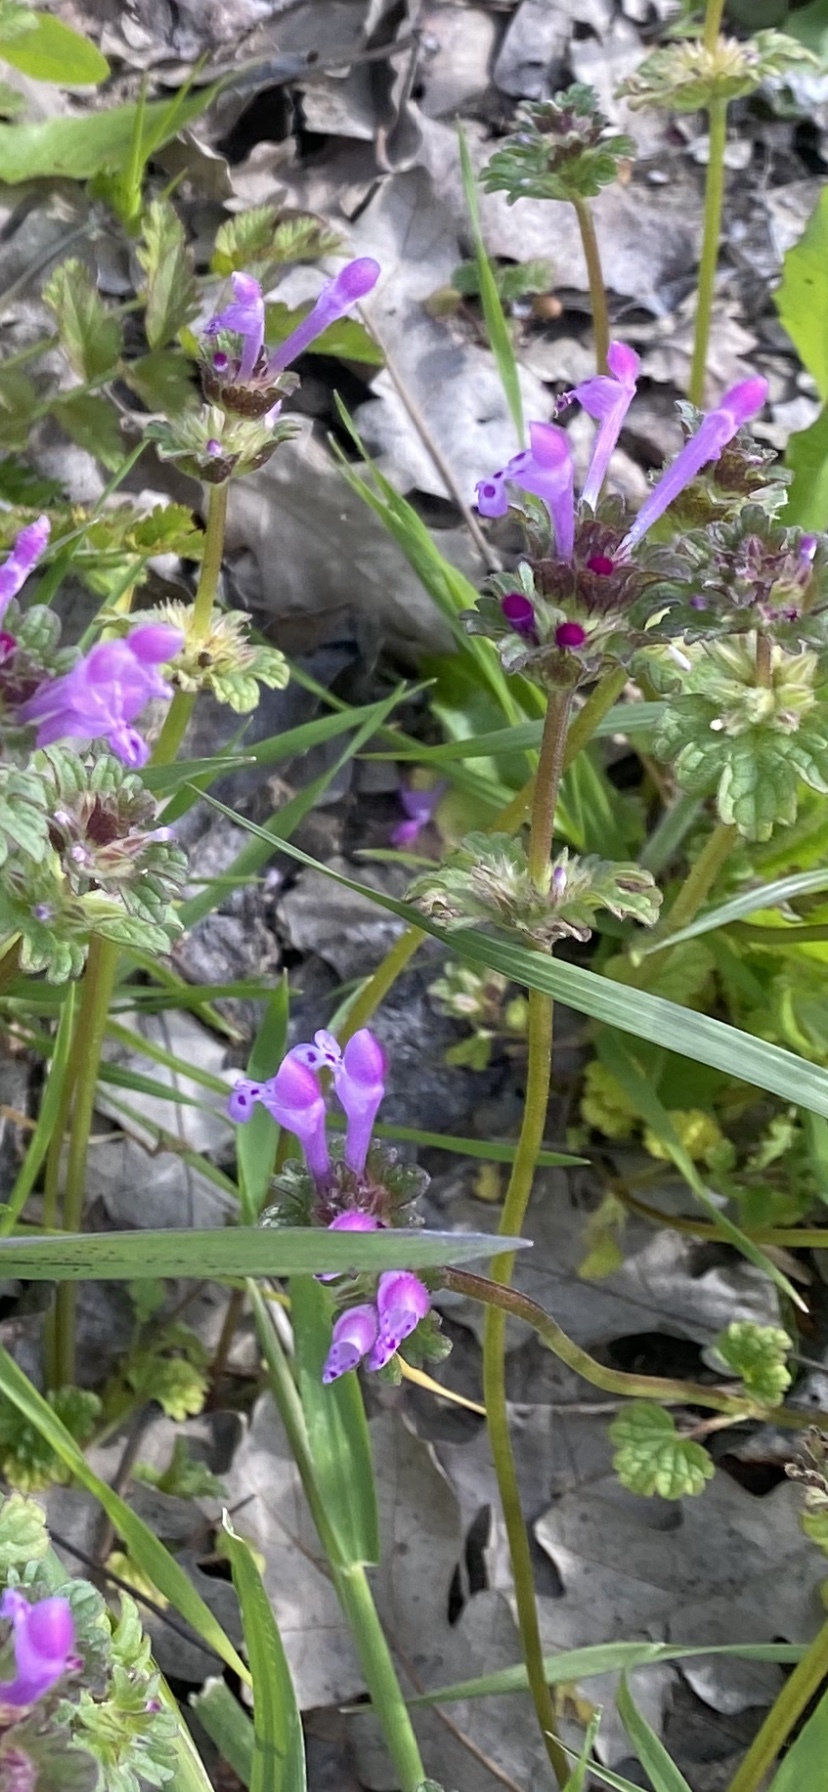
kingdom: Plantae
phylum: Tracheophyta
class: Magnoliopsida
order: Lamiales
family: Lamiaceae
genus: Lamium
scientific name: Lamium amplexicaule
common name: Henbit dead-nettle
